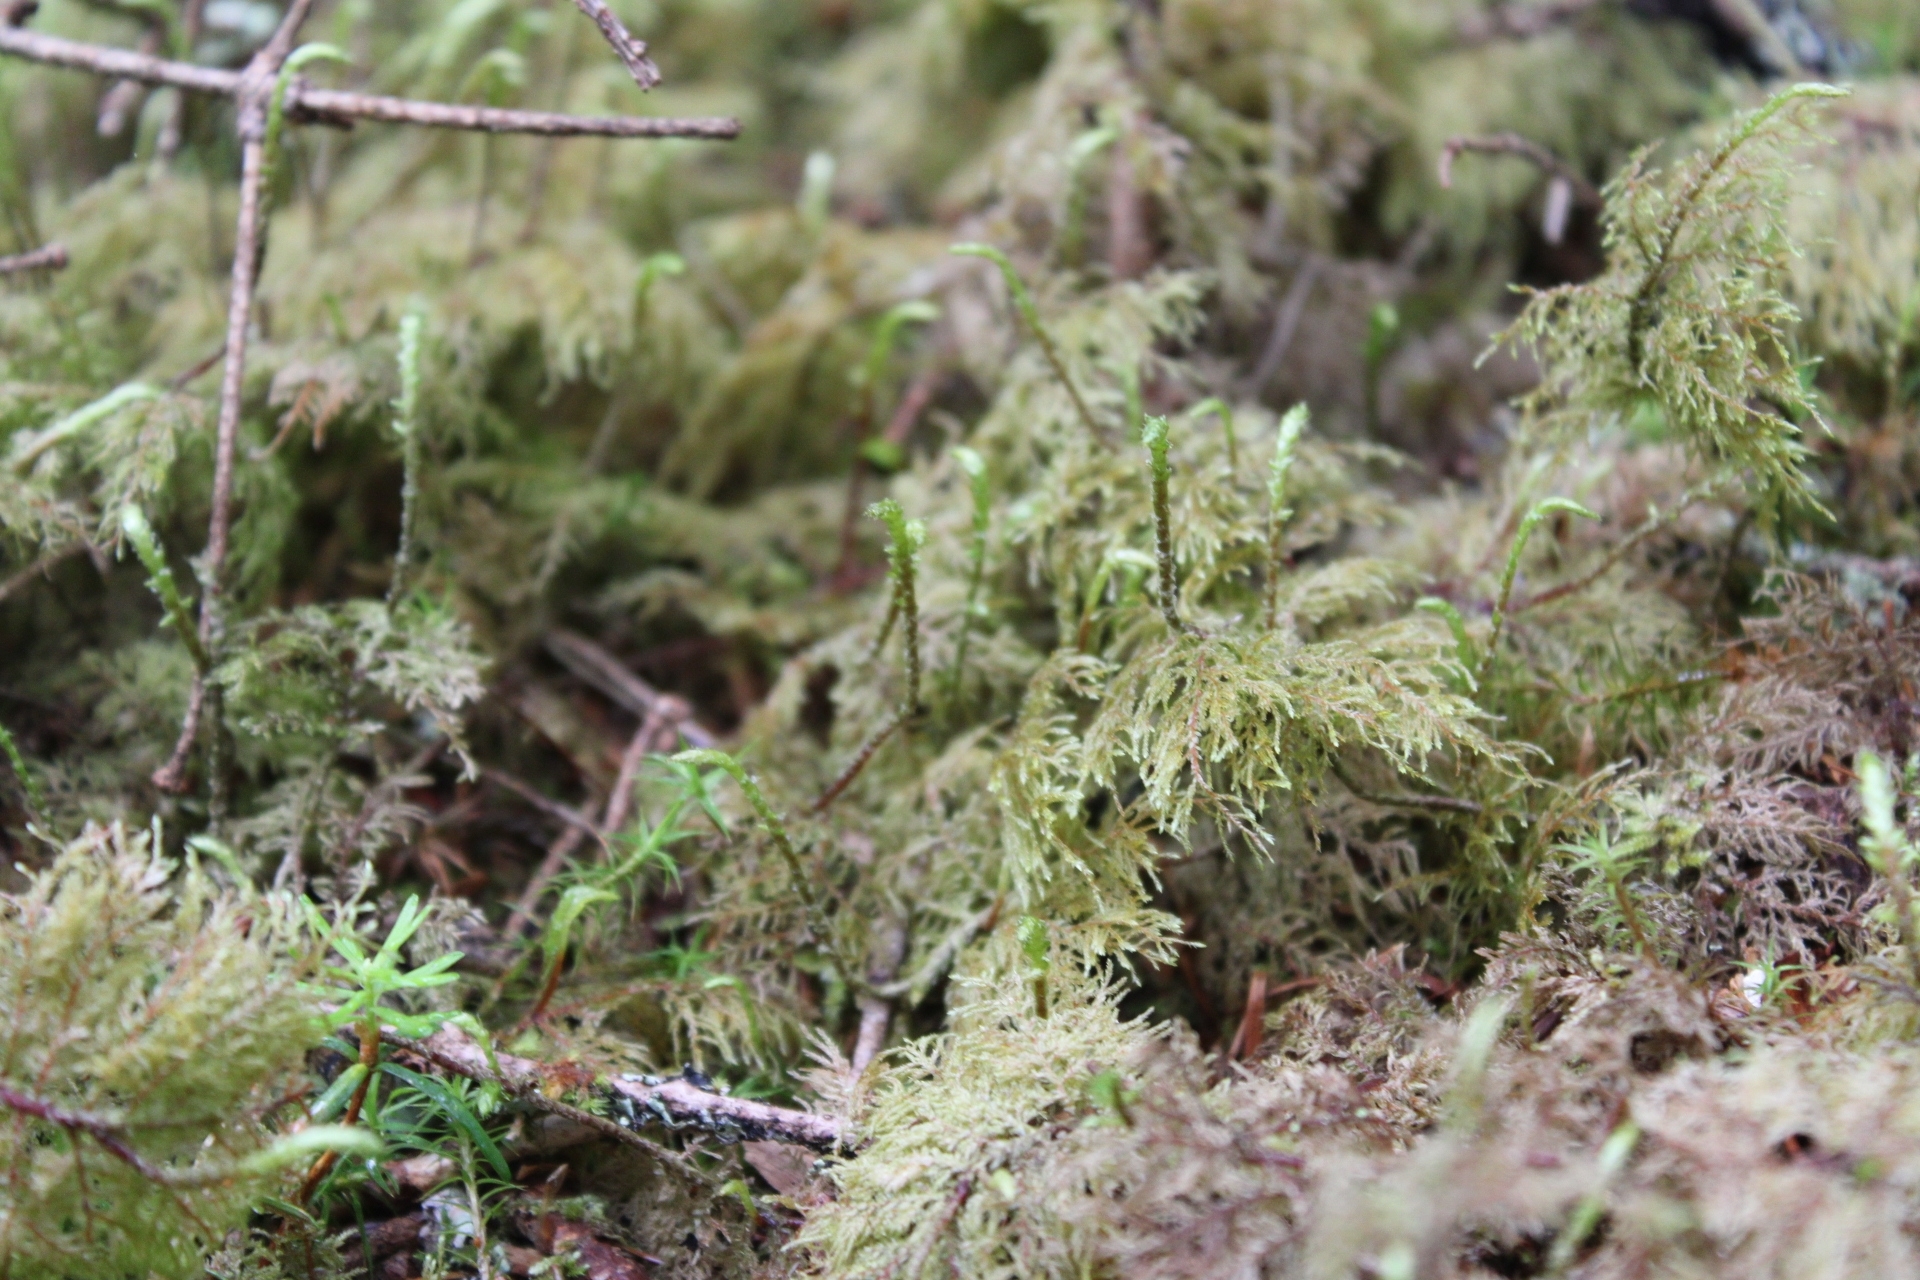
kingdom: Plantae
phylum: Bryophyta
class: Bryopsida
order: Hypnales
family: Hylocomiaceae
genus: Hylocomium
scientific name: Hylocomium splendens
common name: Stairstep moss
